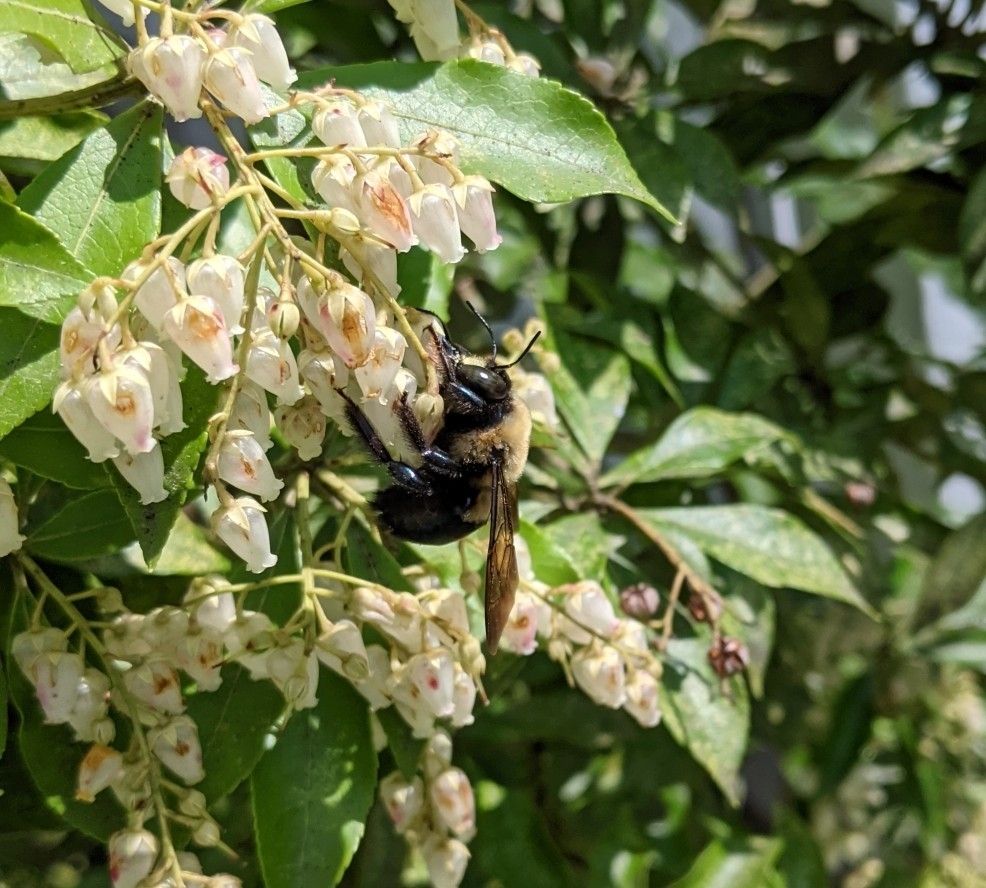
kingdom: Animalia
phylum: Arthropoda
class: Insecta
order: Hymenoptera
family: Apidae
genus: Xylocopa
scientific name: Xylocopa virginica
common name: Carpenter bee
